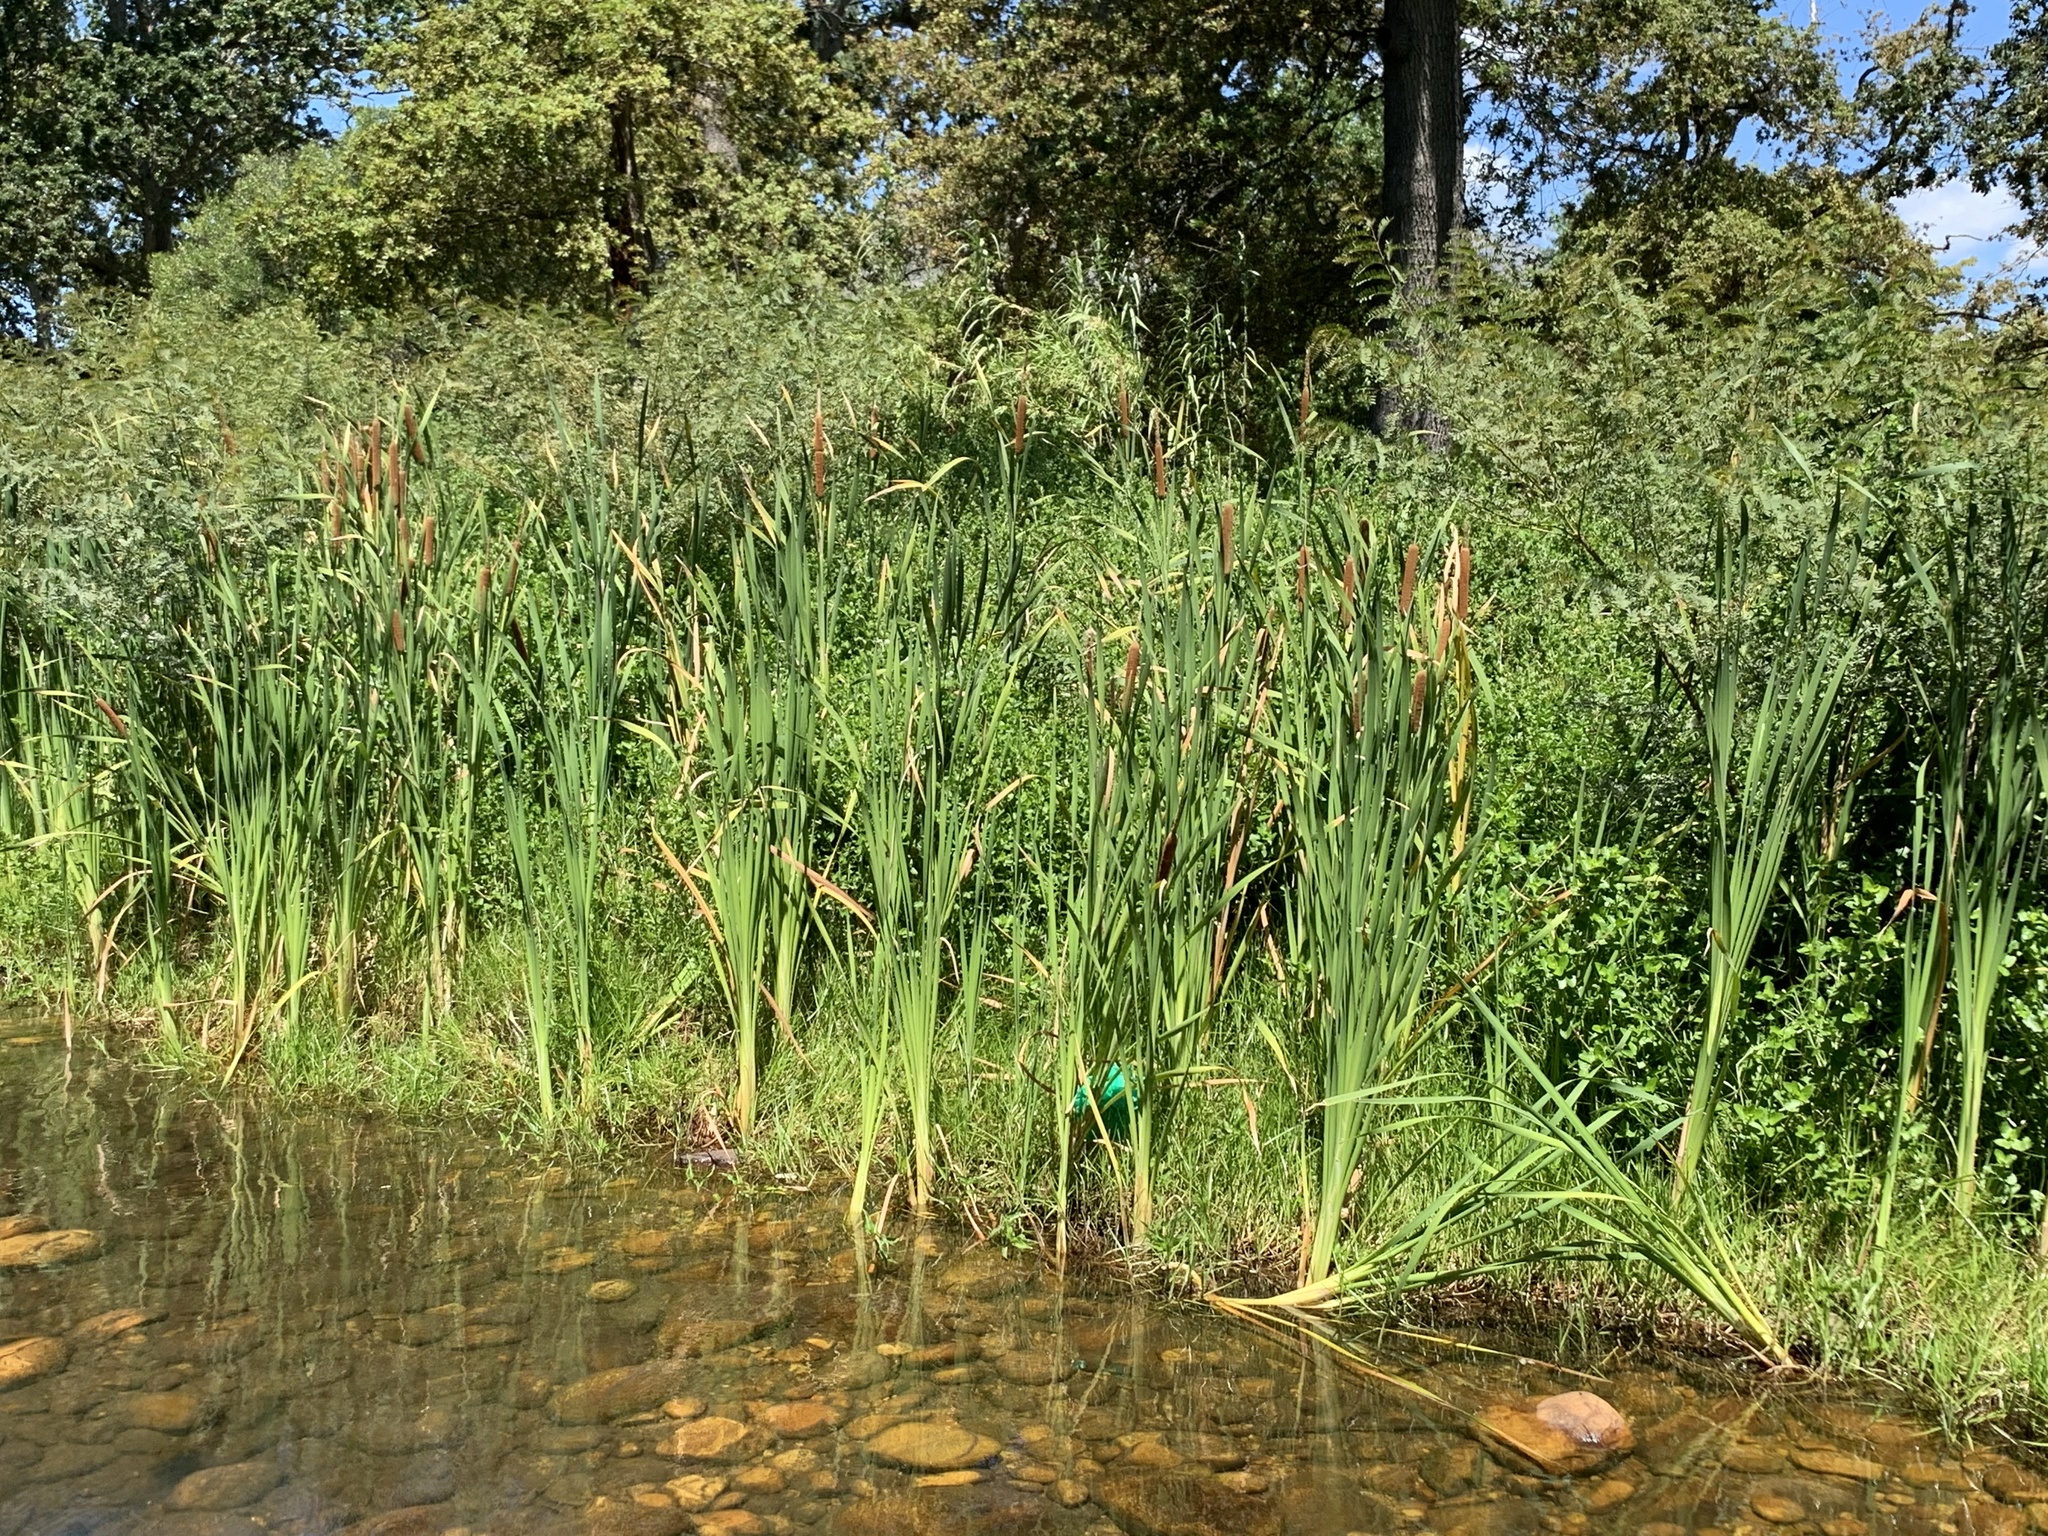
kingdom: Plantae
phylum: Tracheophyta
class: Liliopsida
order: Poales
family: Typhaceae
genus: Typha
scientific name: Typha capensis
